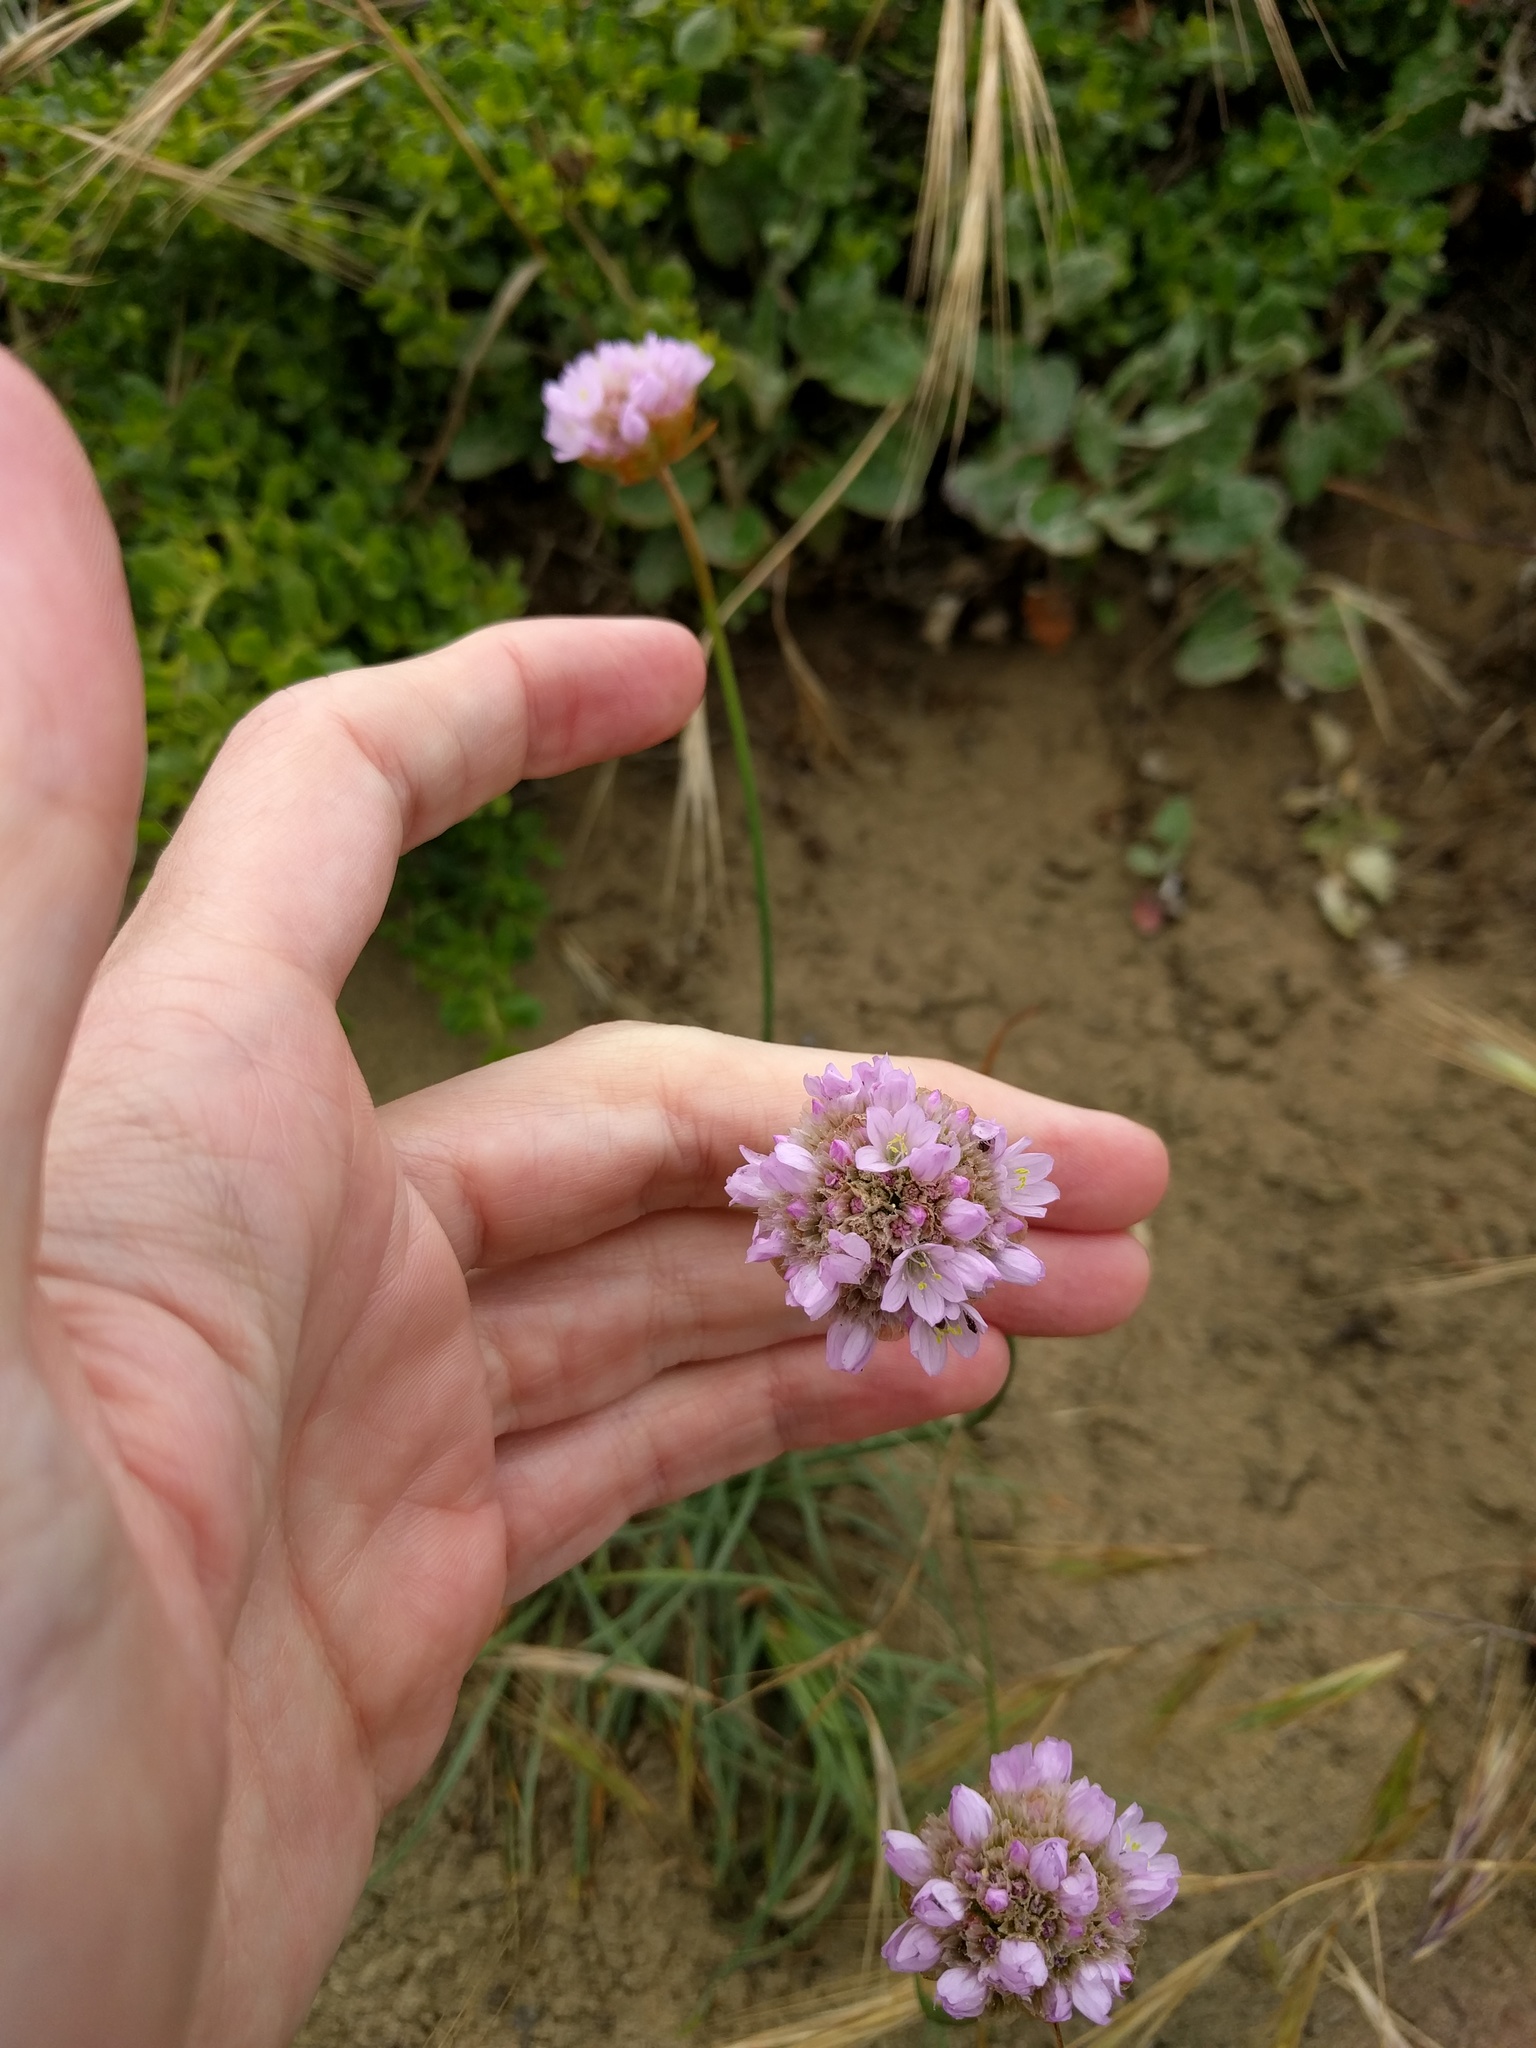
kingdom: Plantae
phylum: Tracheophyta
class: Magnoliopsida
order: Caryophyllales
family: Plumbaginaceae
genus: Armeria
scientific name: Armeria maritima
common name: Thrift
